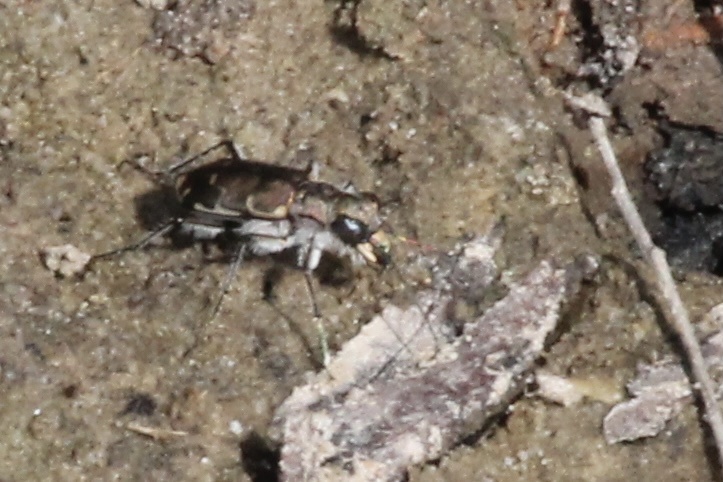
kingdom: Animalia
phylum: Arthropoda
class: Insecta
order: Coleoptera
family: Carabidae
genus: Cicindela
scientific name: Cicindela repanda
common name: Bronzed tiger beetle
